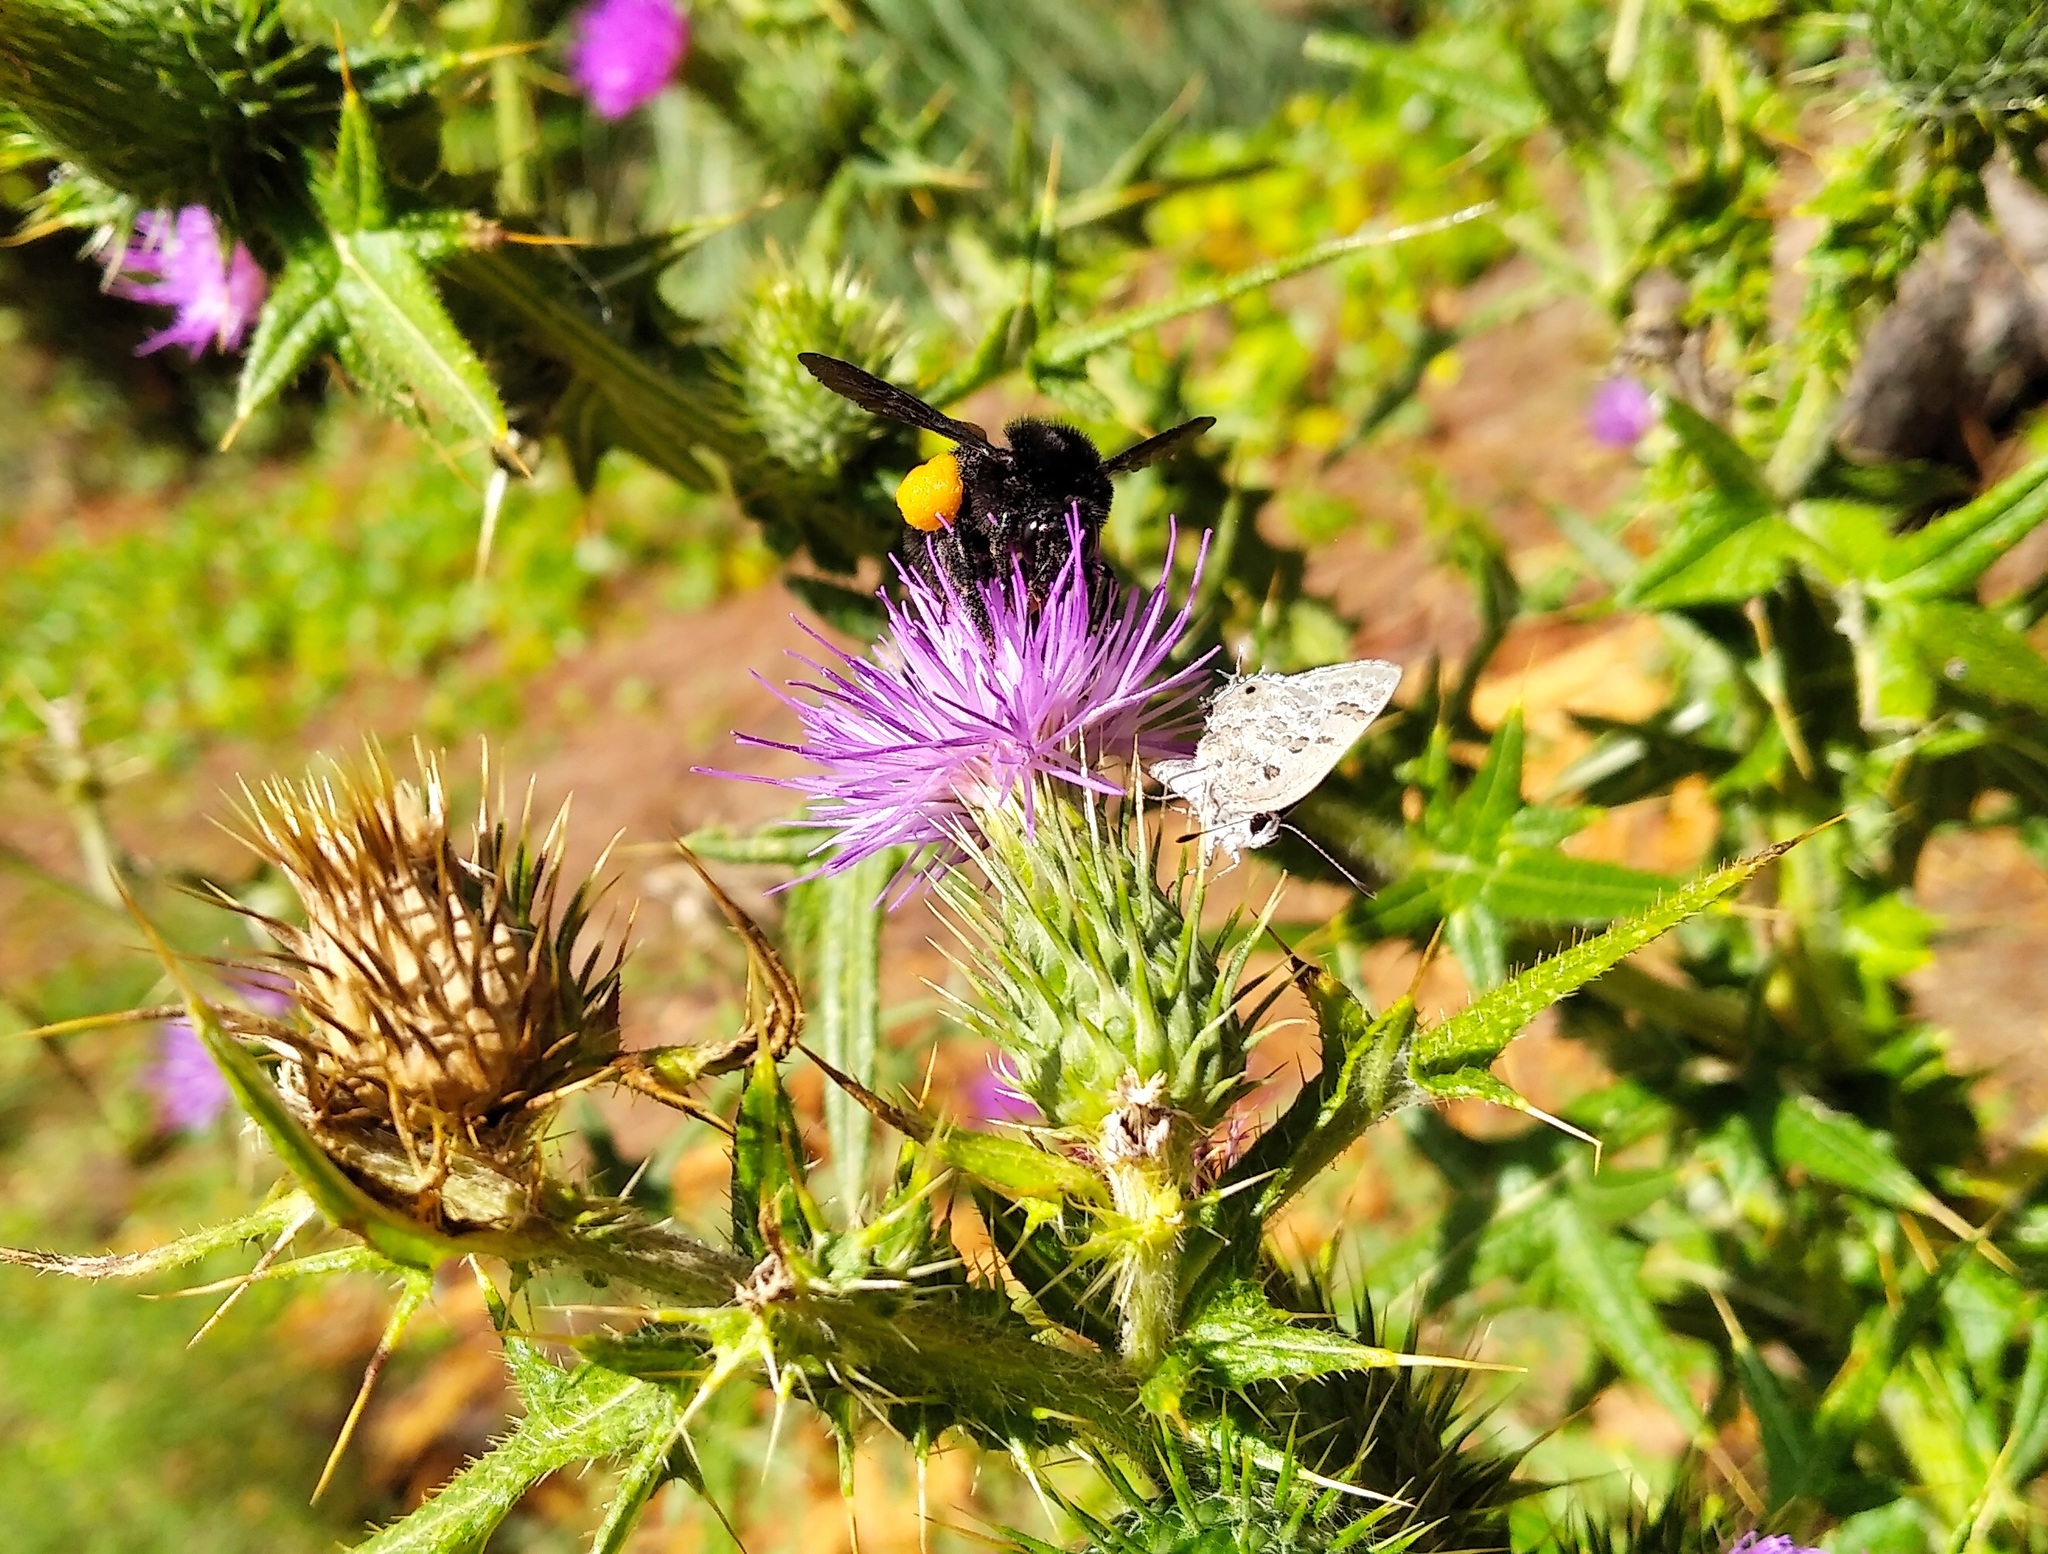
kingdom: Animalia
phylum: Arthropoda
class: Insecta
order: Lepidoptera
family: Lycaenidae
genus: Strymon
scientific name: Strymon lucena
